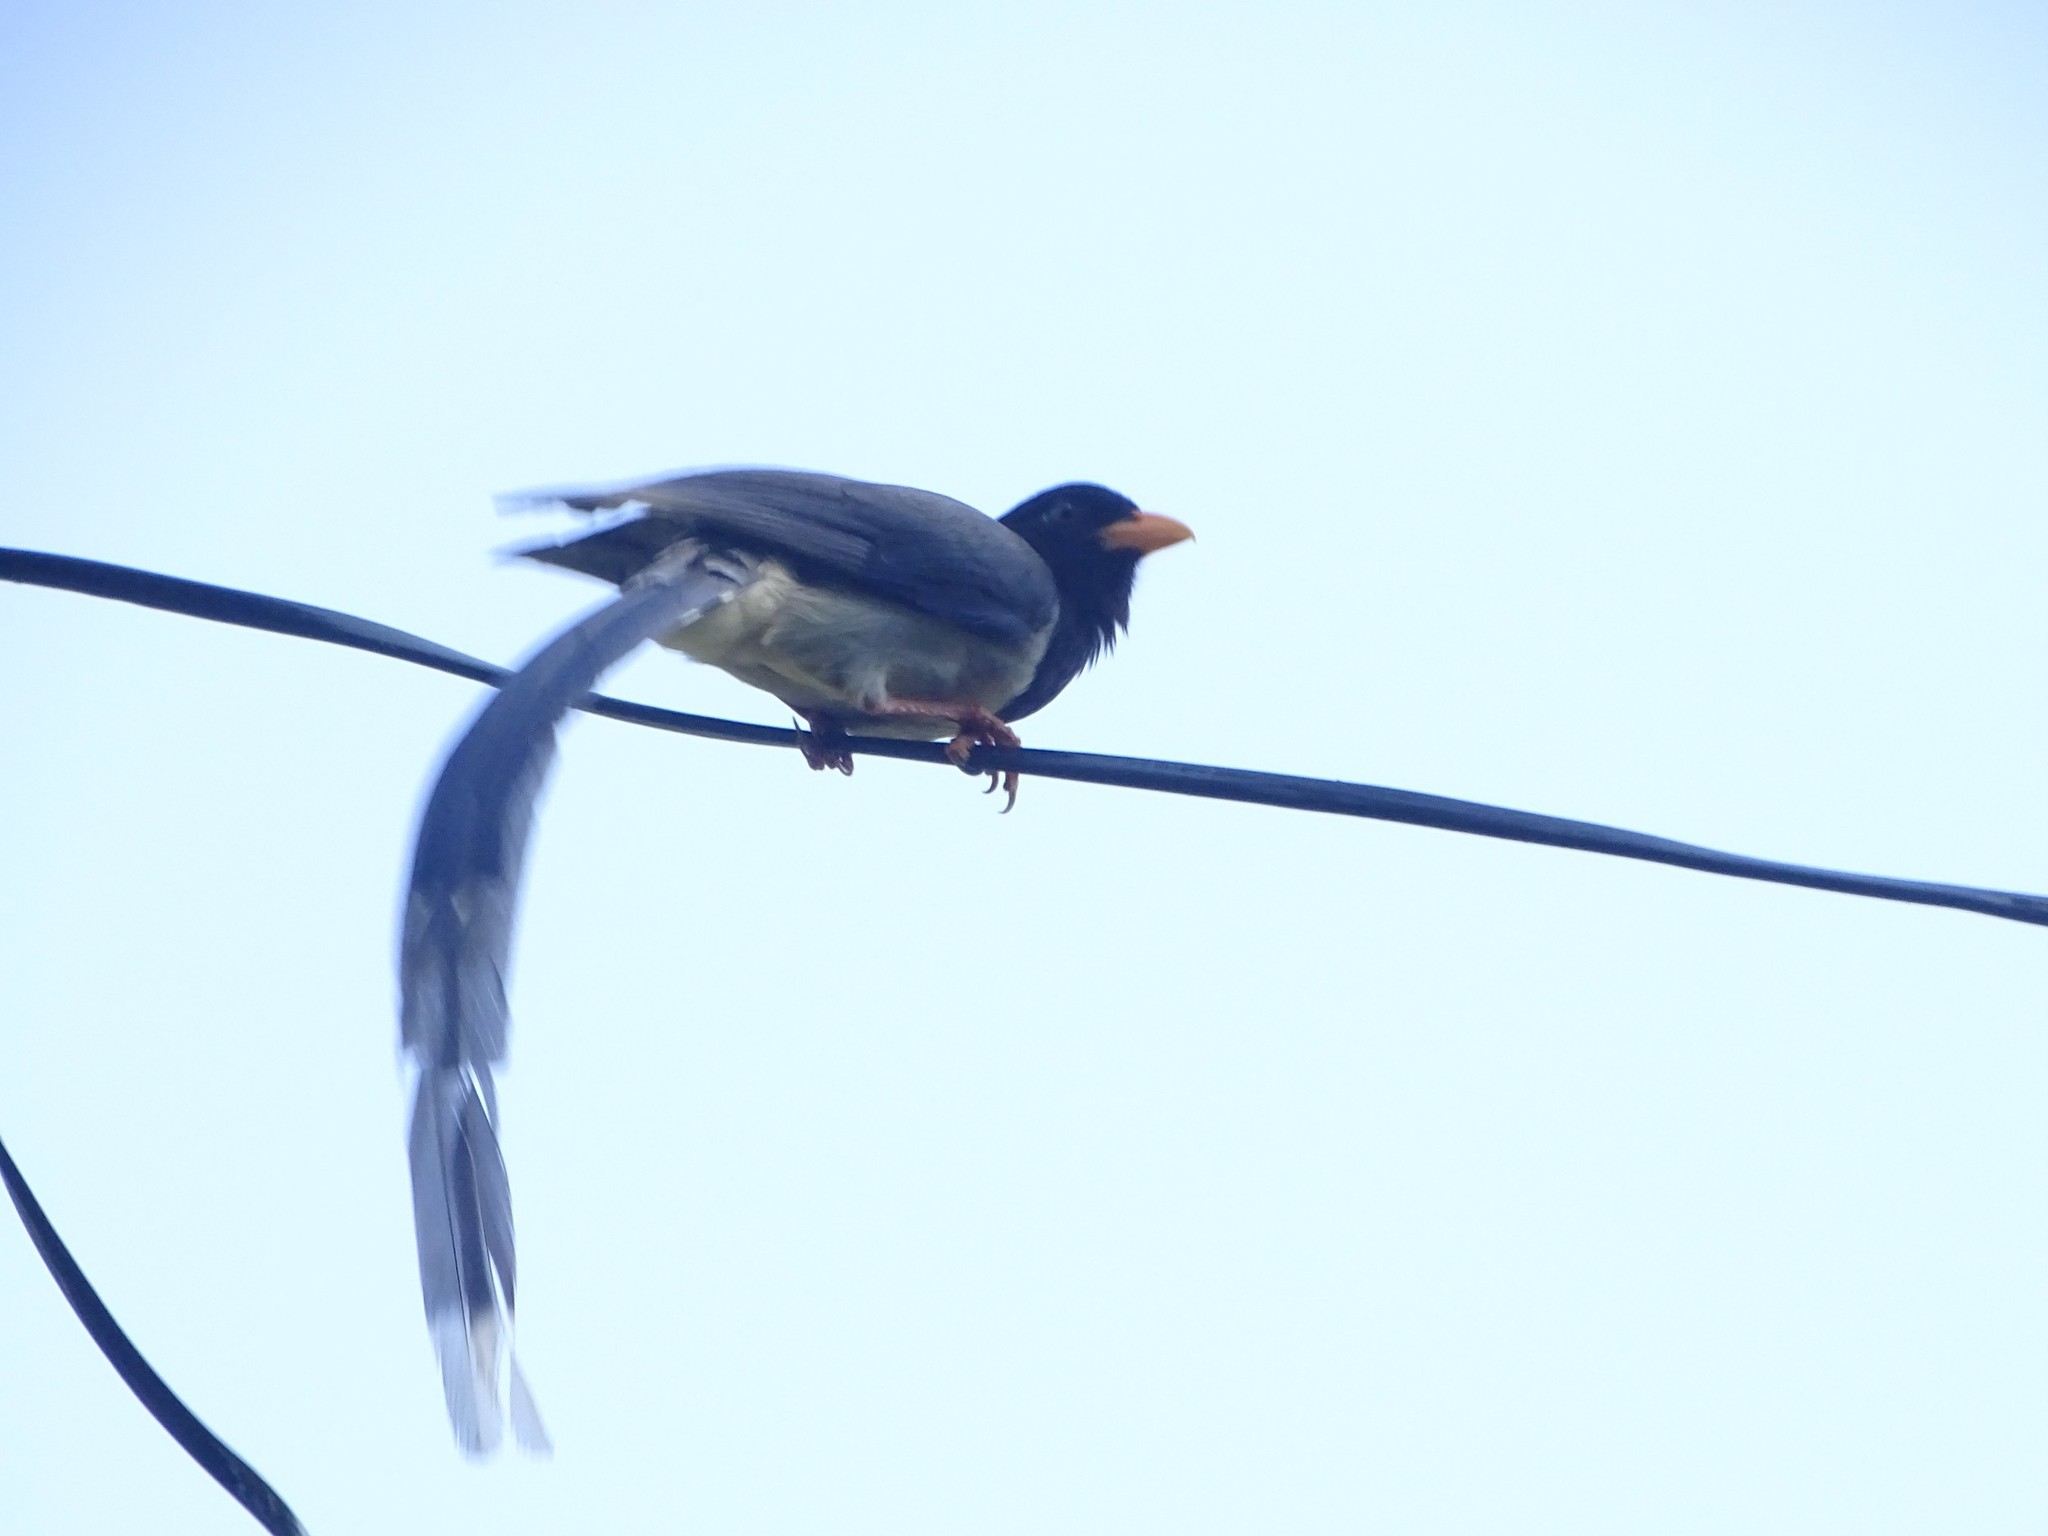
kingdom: Animalia
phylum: Chordata
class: Aves
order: Passeriformes
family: Corvidae
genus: Urocissa
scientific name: Urocissa erythroryncha
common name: Red-billed blue magpie
